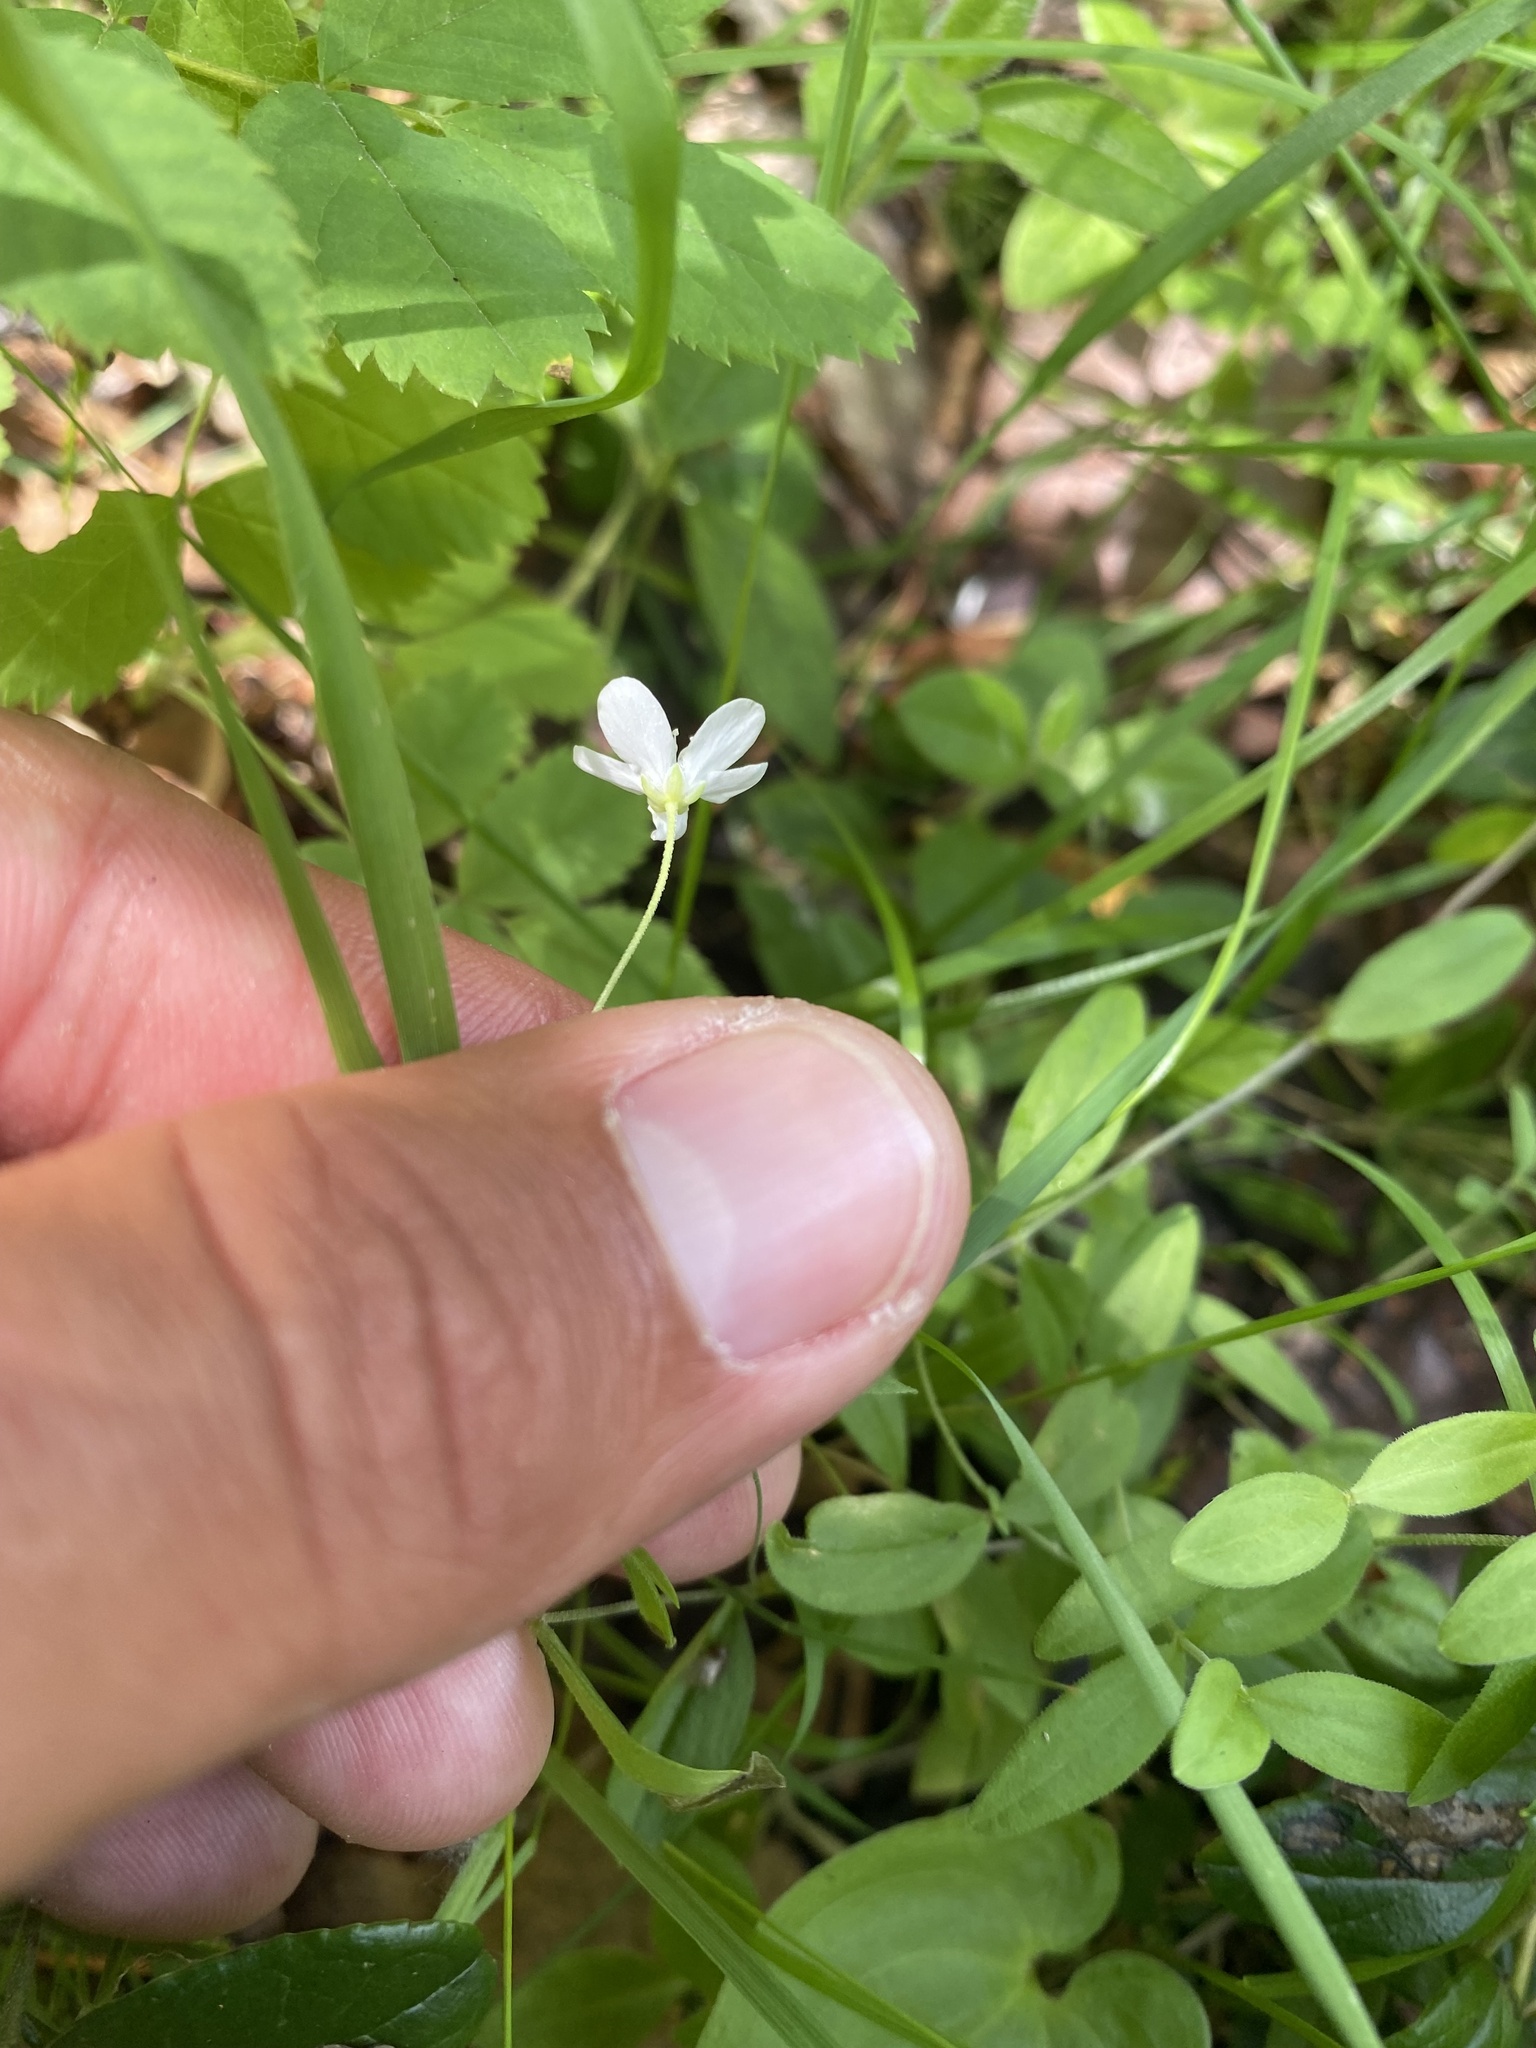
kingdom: Plantae
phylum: Tracheophyta
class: Magnoliopsida
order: Caryophyllales
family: Caryophyllaceae
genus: Moehringia
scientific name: Moehringia lateriflora
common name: Blunt-leaved sandwort
